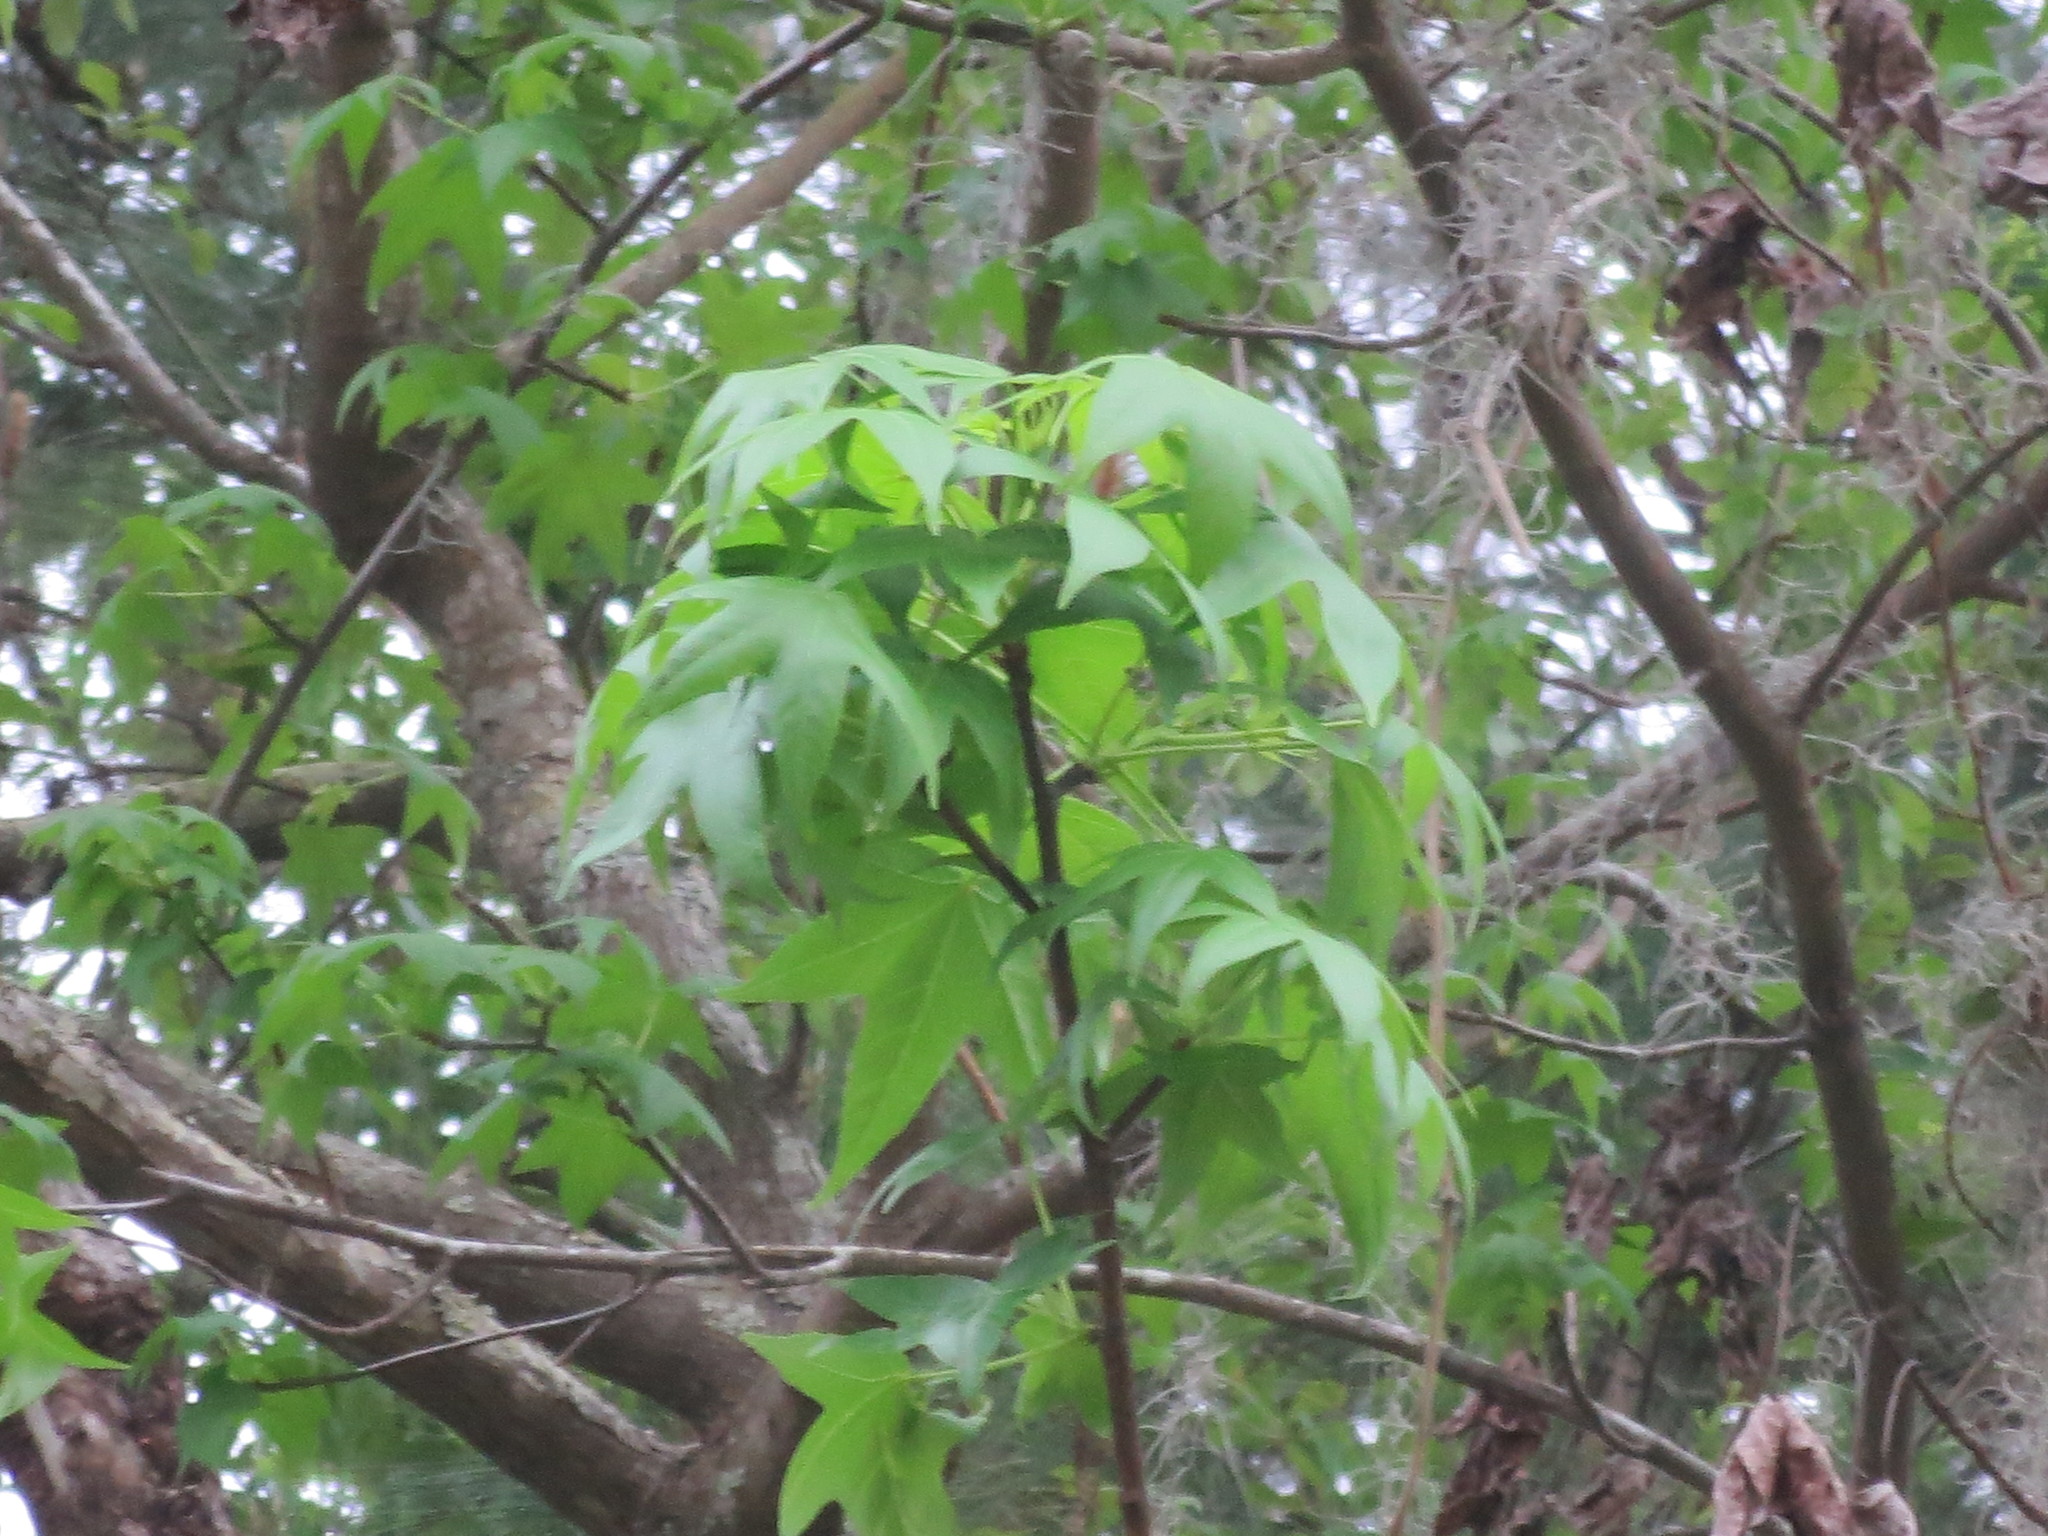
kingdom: Plantae
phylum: Tracheophyta
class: Magnoliopsida
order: Saxifragales
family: Altingiaceae
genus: Liquidambar
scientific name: Liquidambar styraciflua
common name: Sweet gum
